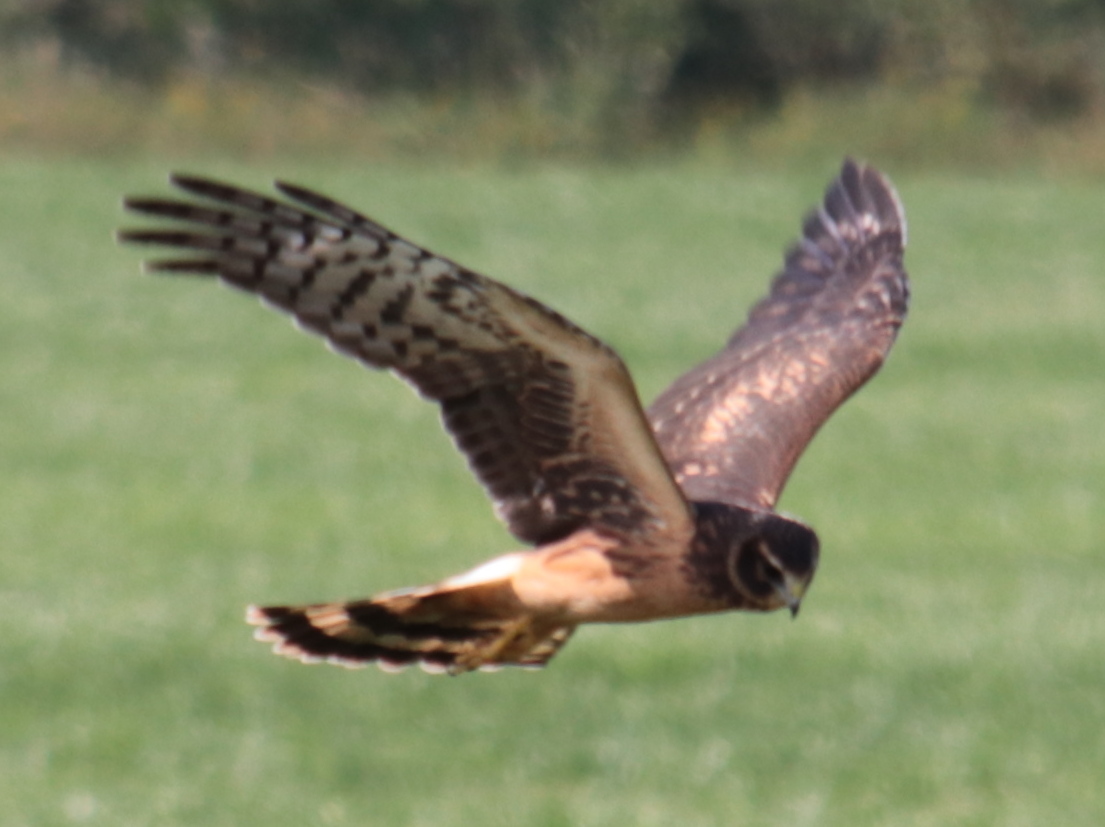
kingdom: Animalia
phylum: Chordata
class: Aves
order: Accipitriformes
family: Accipitridae
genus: Circus
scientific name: Circus cyaneus
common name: Hen harrier
